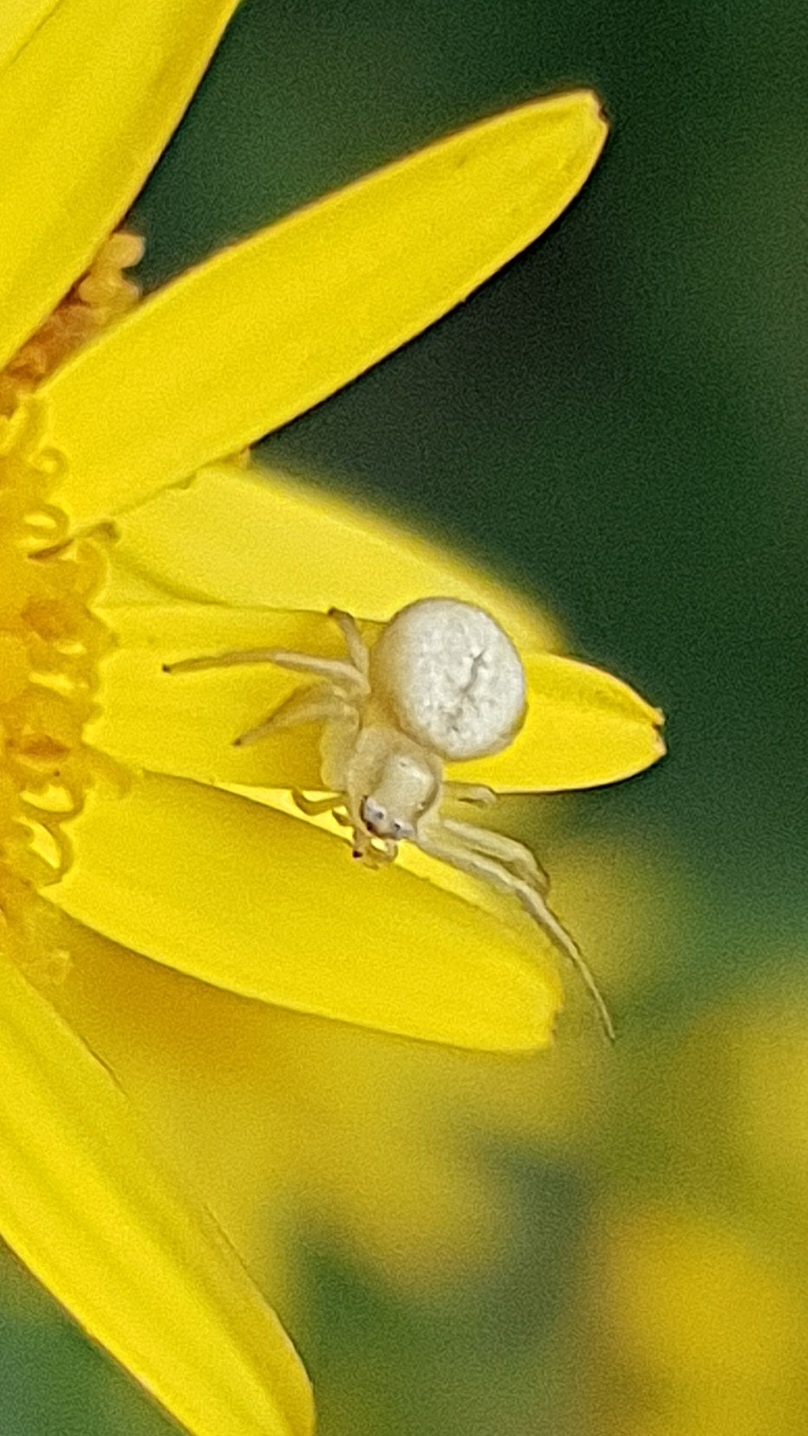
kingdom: Animalia
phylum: Arthropoda
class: Arachnida
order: Araneae
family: Thomisidae
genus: Misumena
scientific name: Misumena vatia
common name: Goldenrod crab spider
